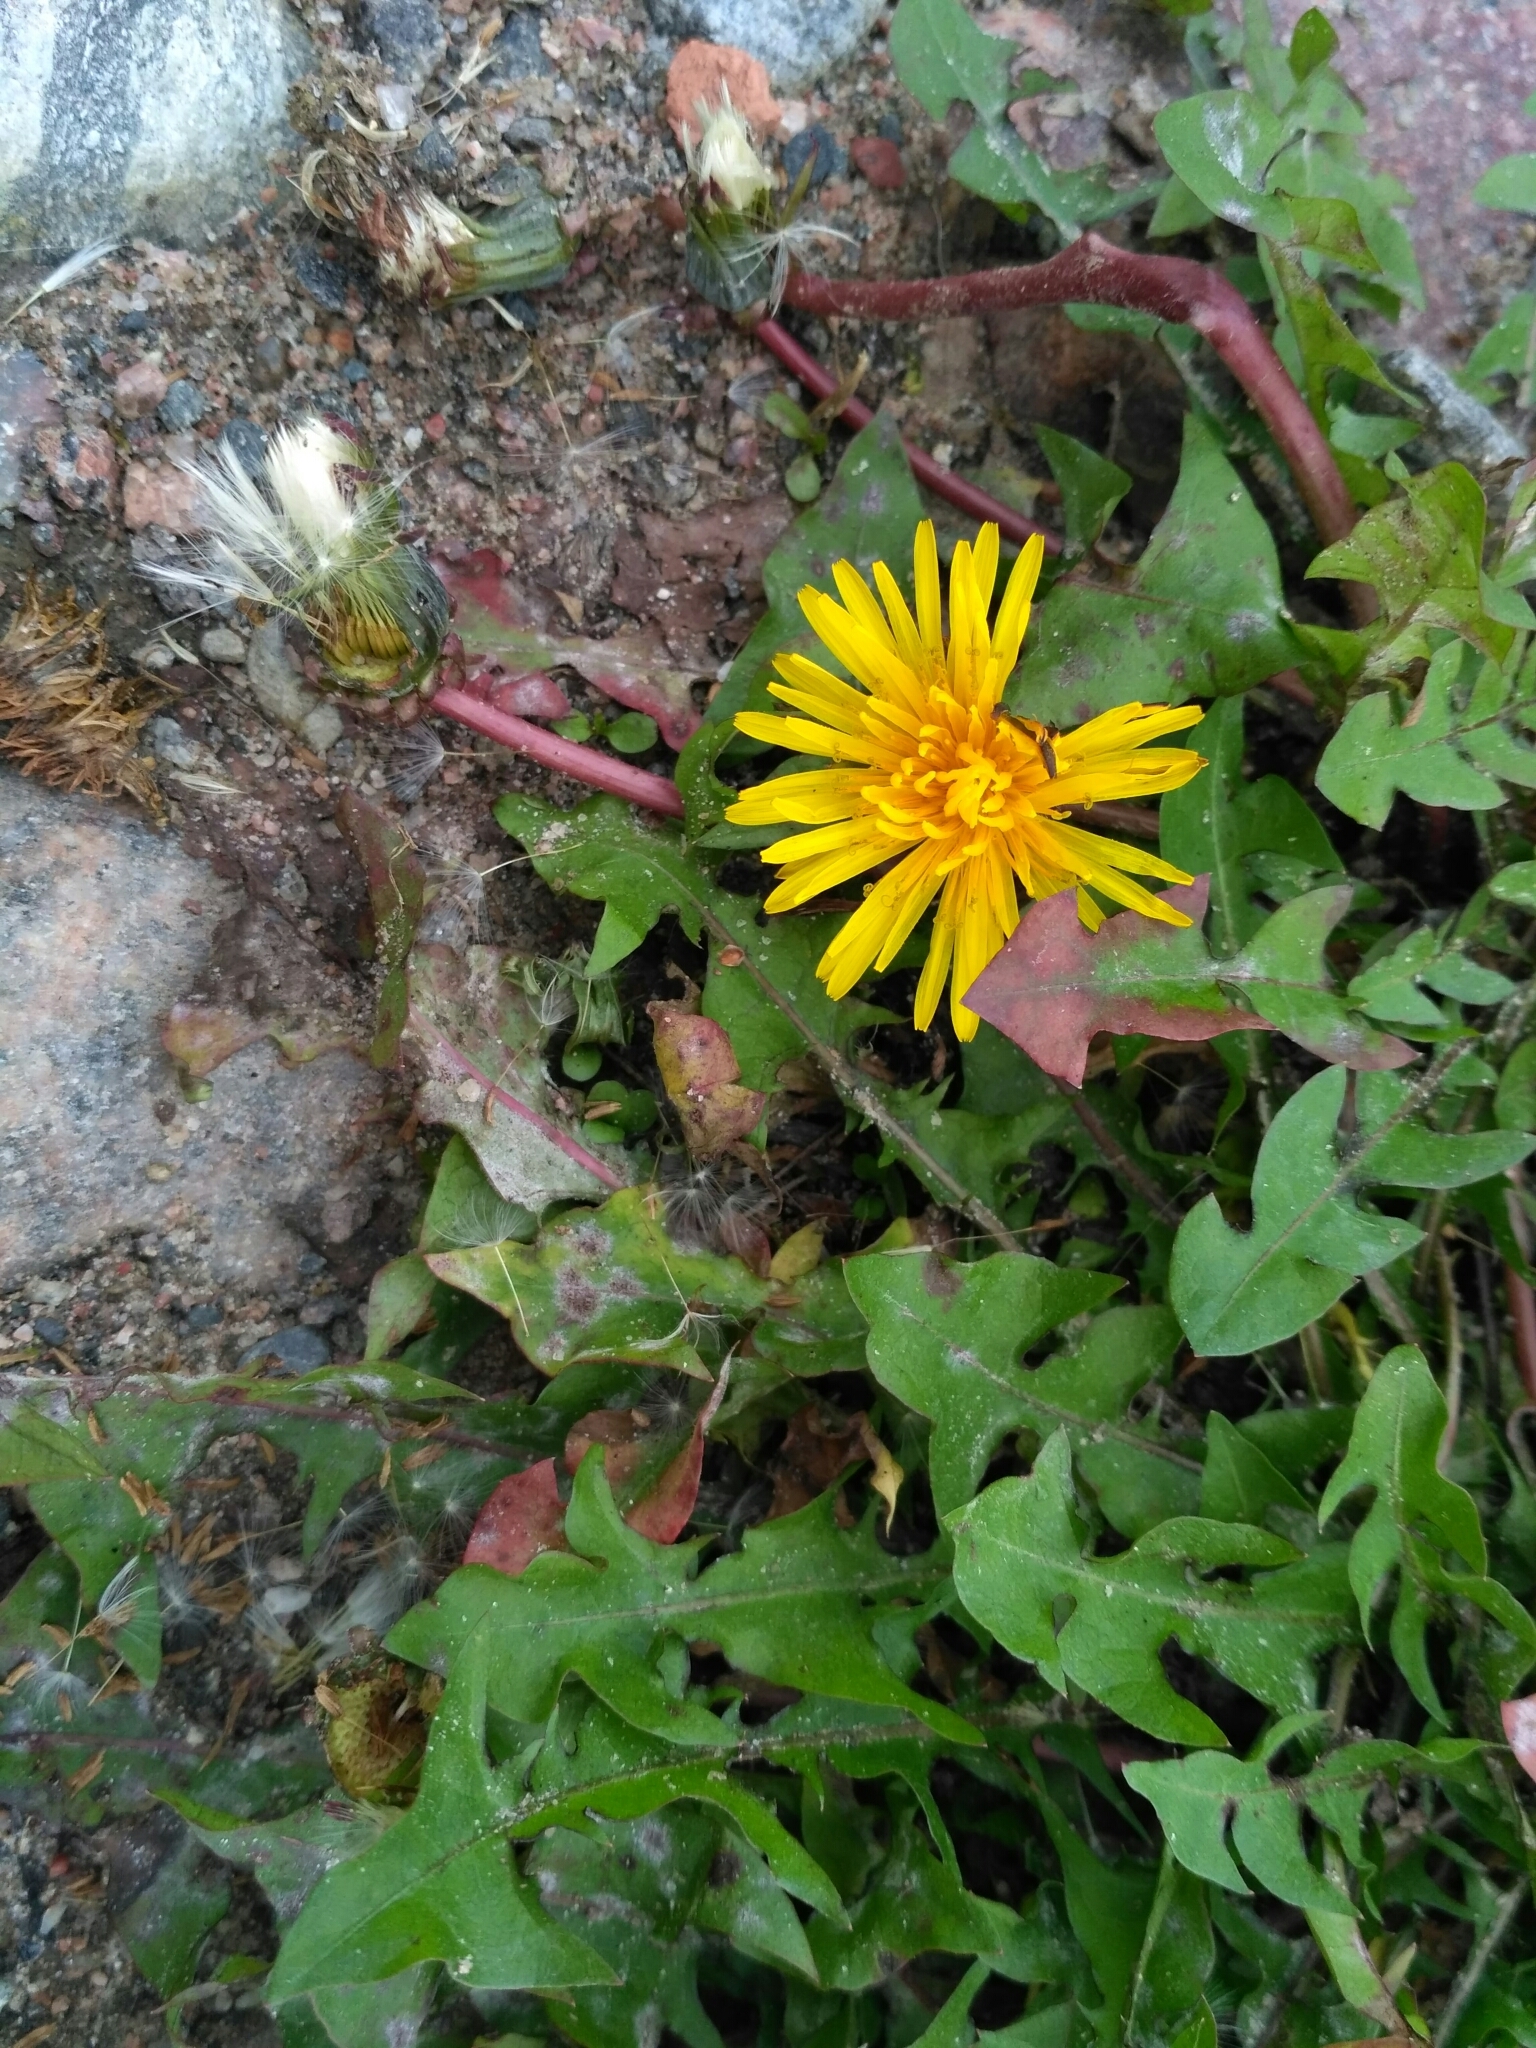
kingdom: Plantae
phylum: Tracheophyta
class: Magnoliopsida
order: Asterales
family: Asteraceae
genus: Taraxacum
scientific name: Taraxacum officinale
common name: Common dandelion
